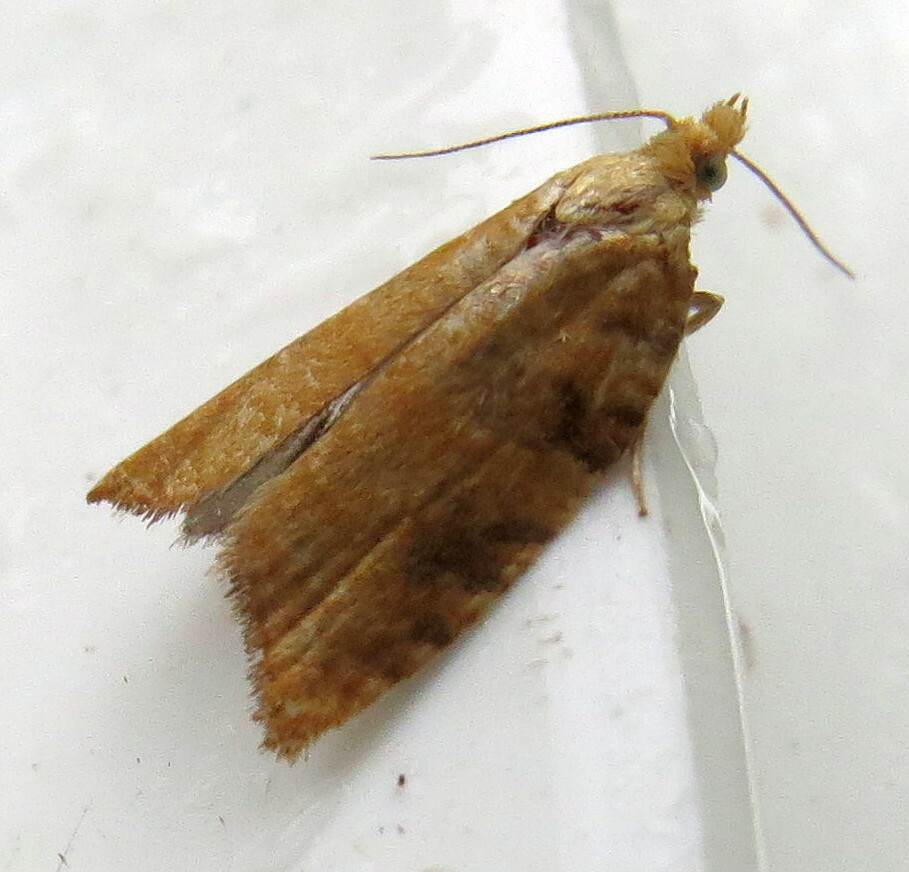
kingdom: Animalia
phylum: Arthropoda
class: Insecta
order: Lepidoptera
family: Tortricidae
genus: Aleimma
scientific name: Aleimma loeflingiana
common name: Yellow oak button
